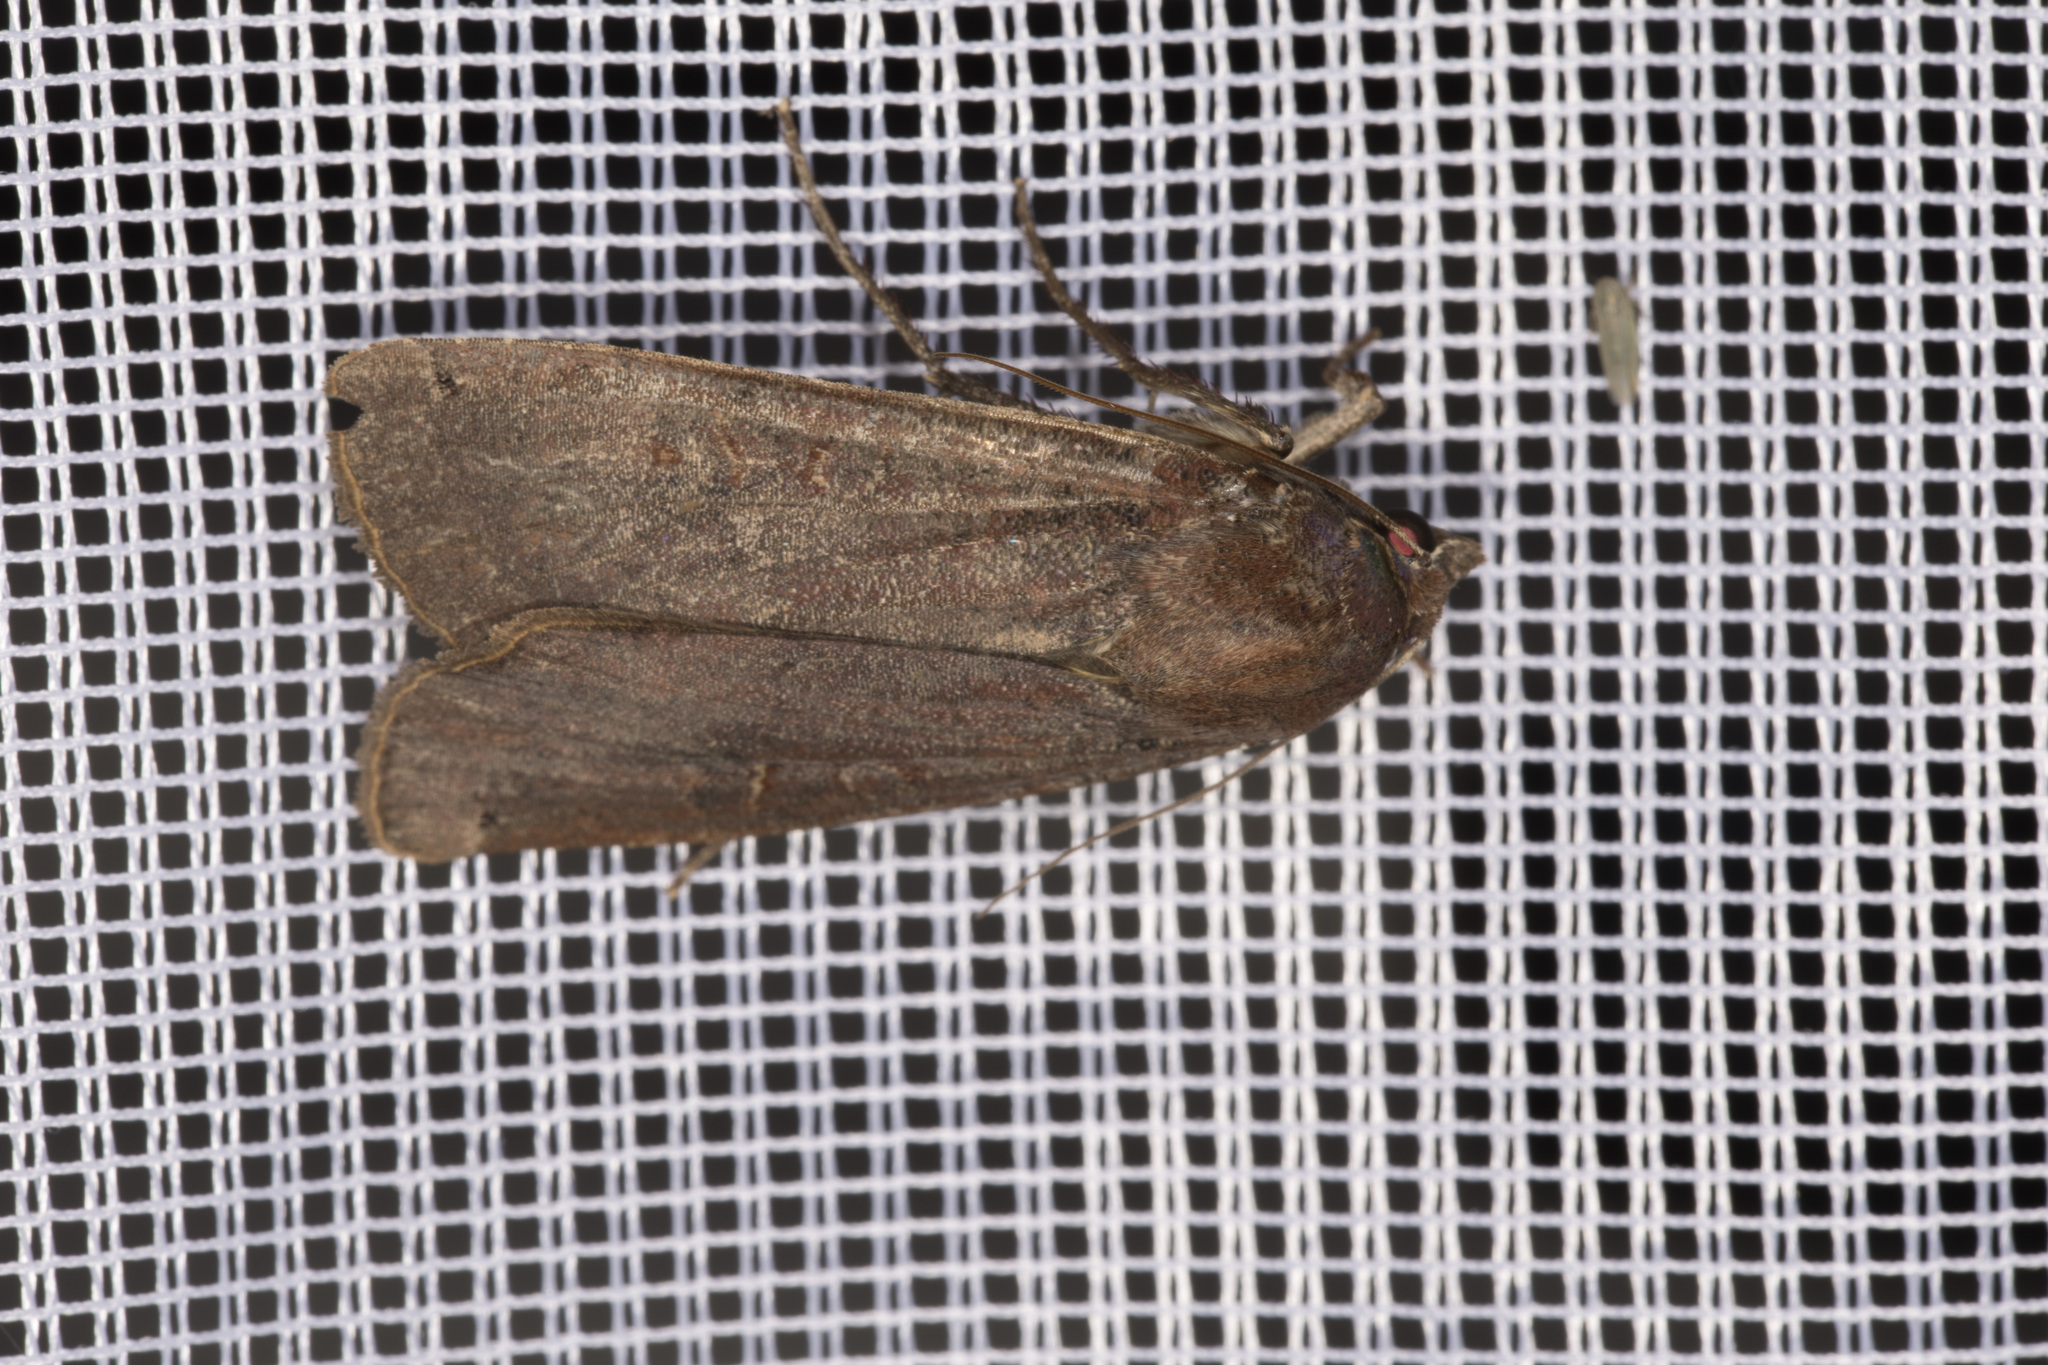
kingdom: Animalia
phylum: Arthropoda
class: Insecta
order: Lepidoptera
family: Noctuidae
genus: Noctua
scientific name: Noctua pronuba
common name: Large yellow underwing
